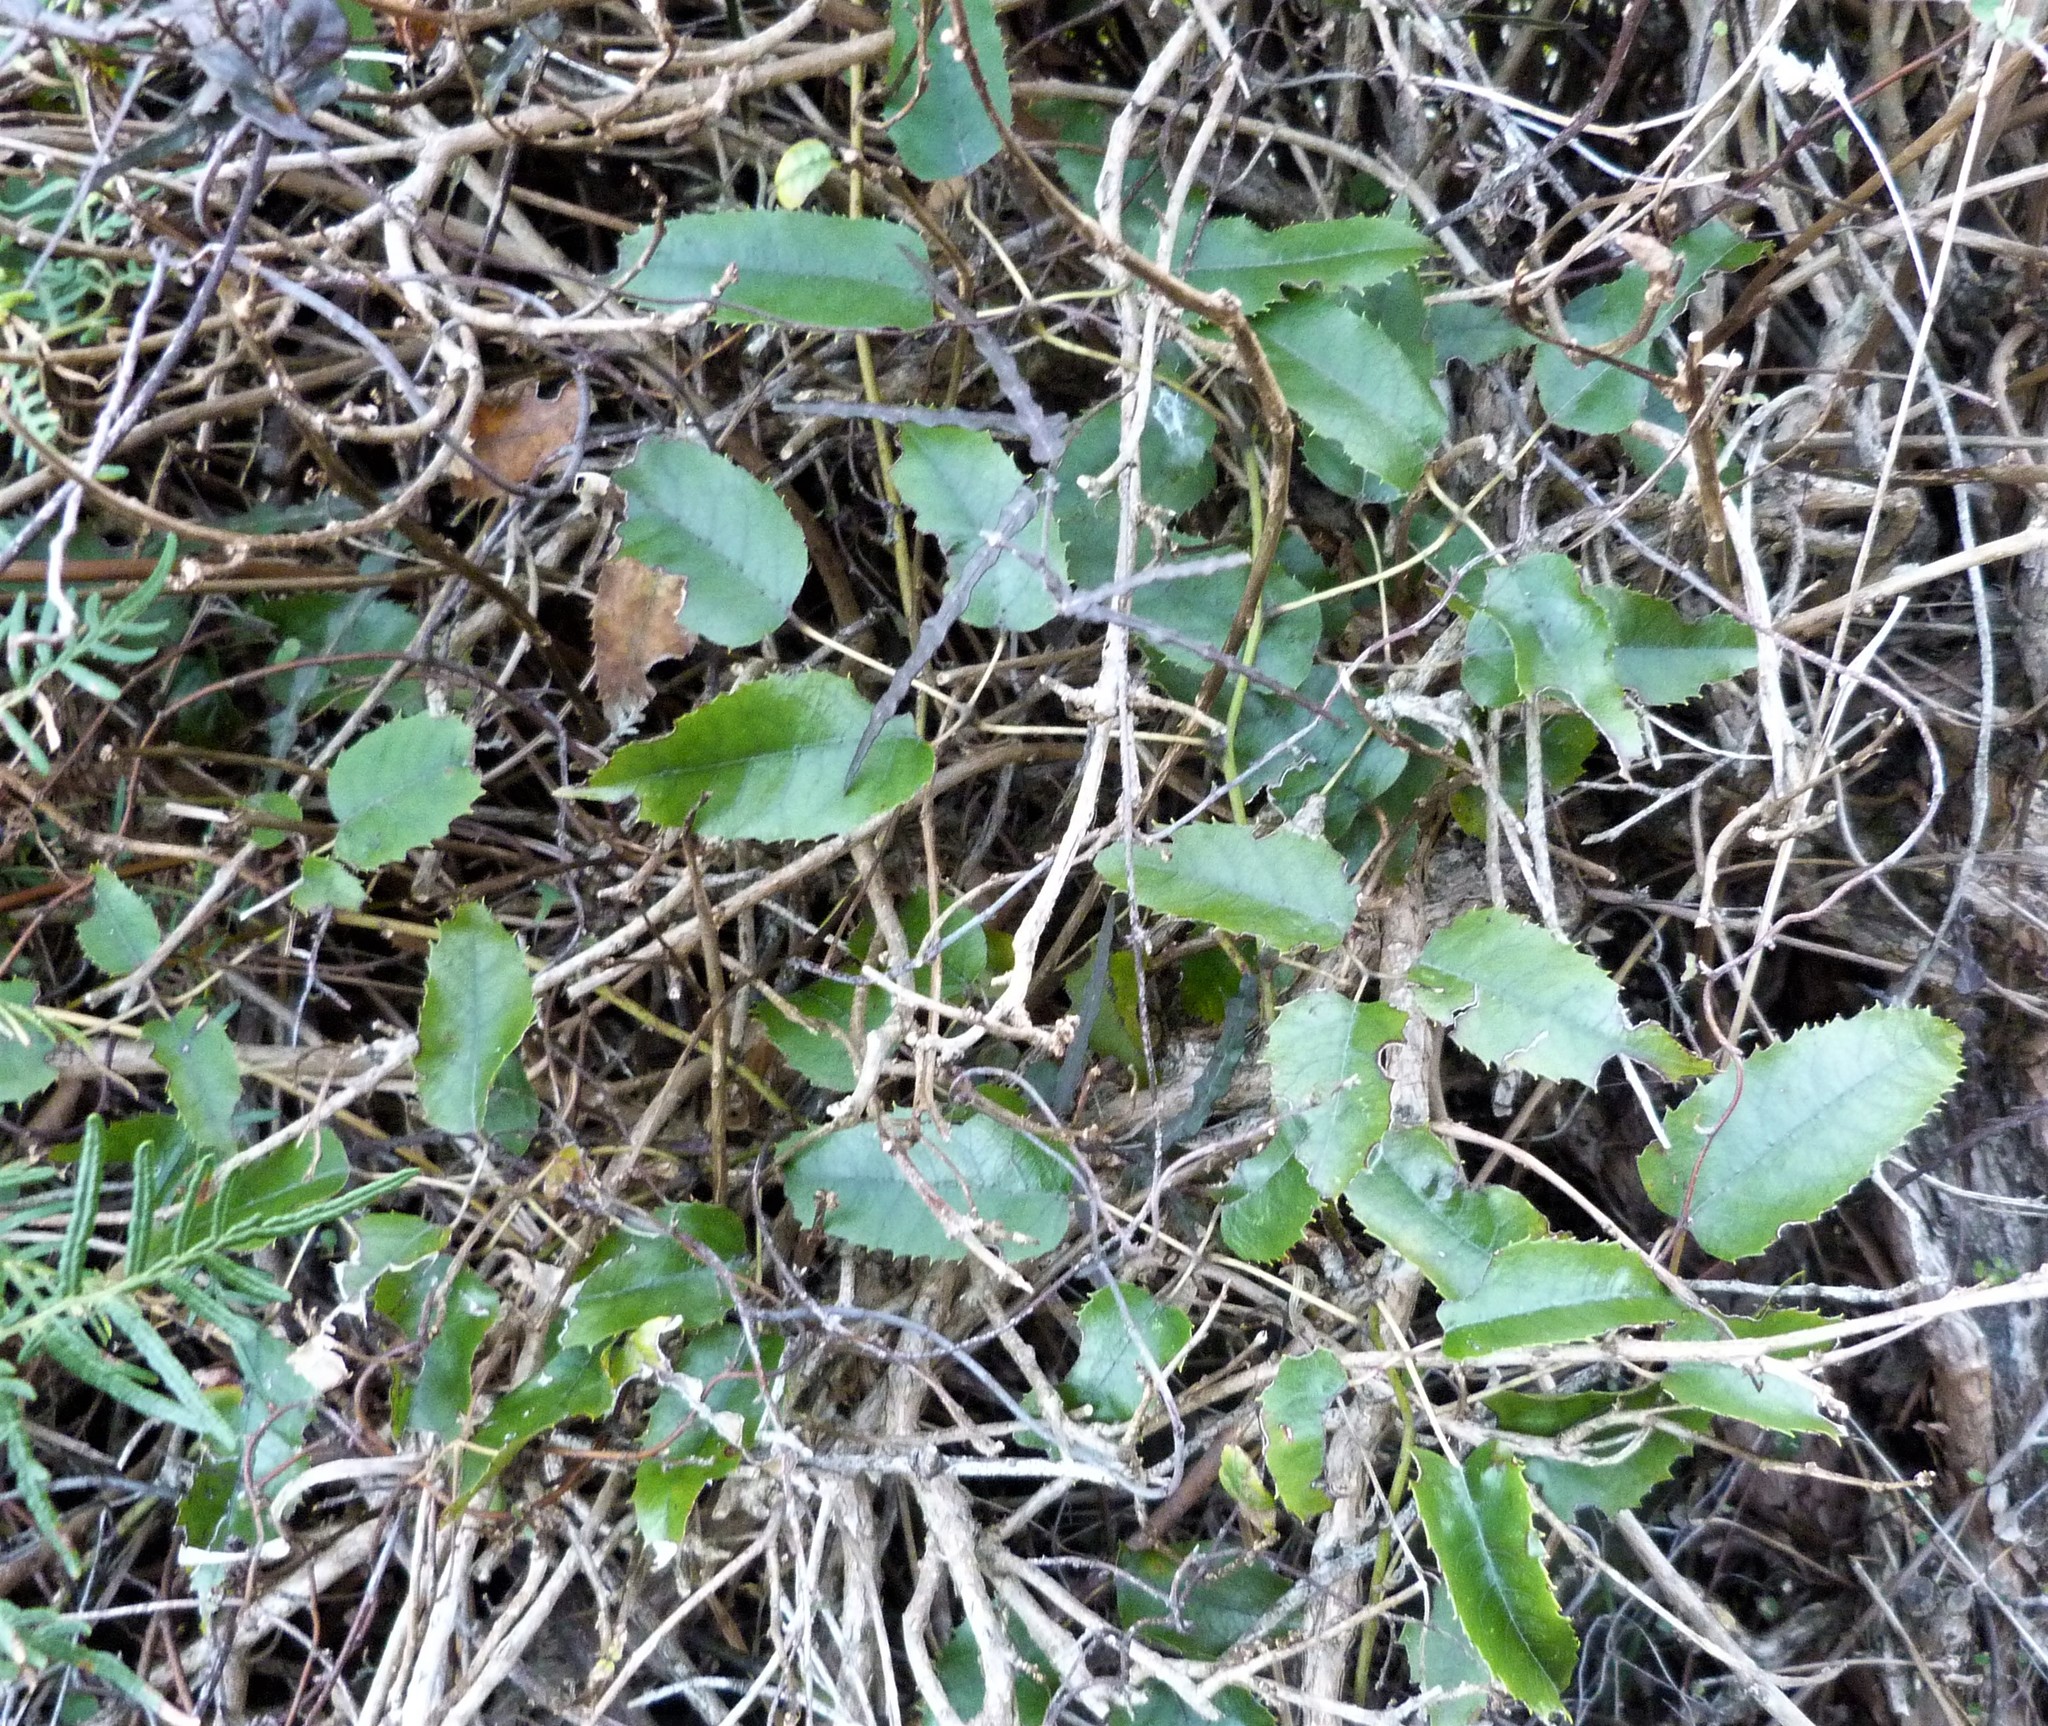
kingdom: Plantae
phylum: Tracheophyta
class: Magnoliopsida
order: Rosales
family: Rosaceae
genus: Rubus
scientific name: Rubus cissoides
